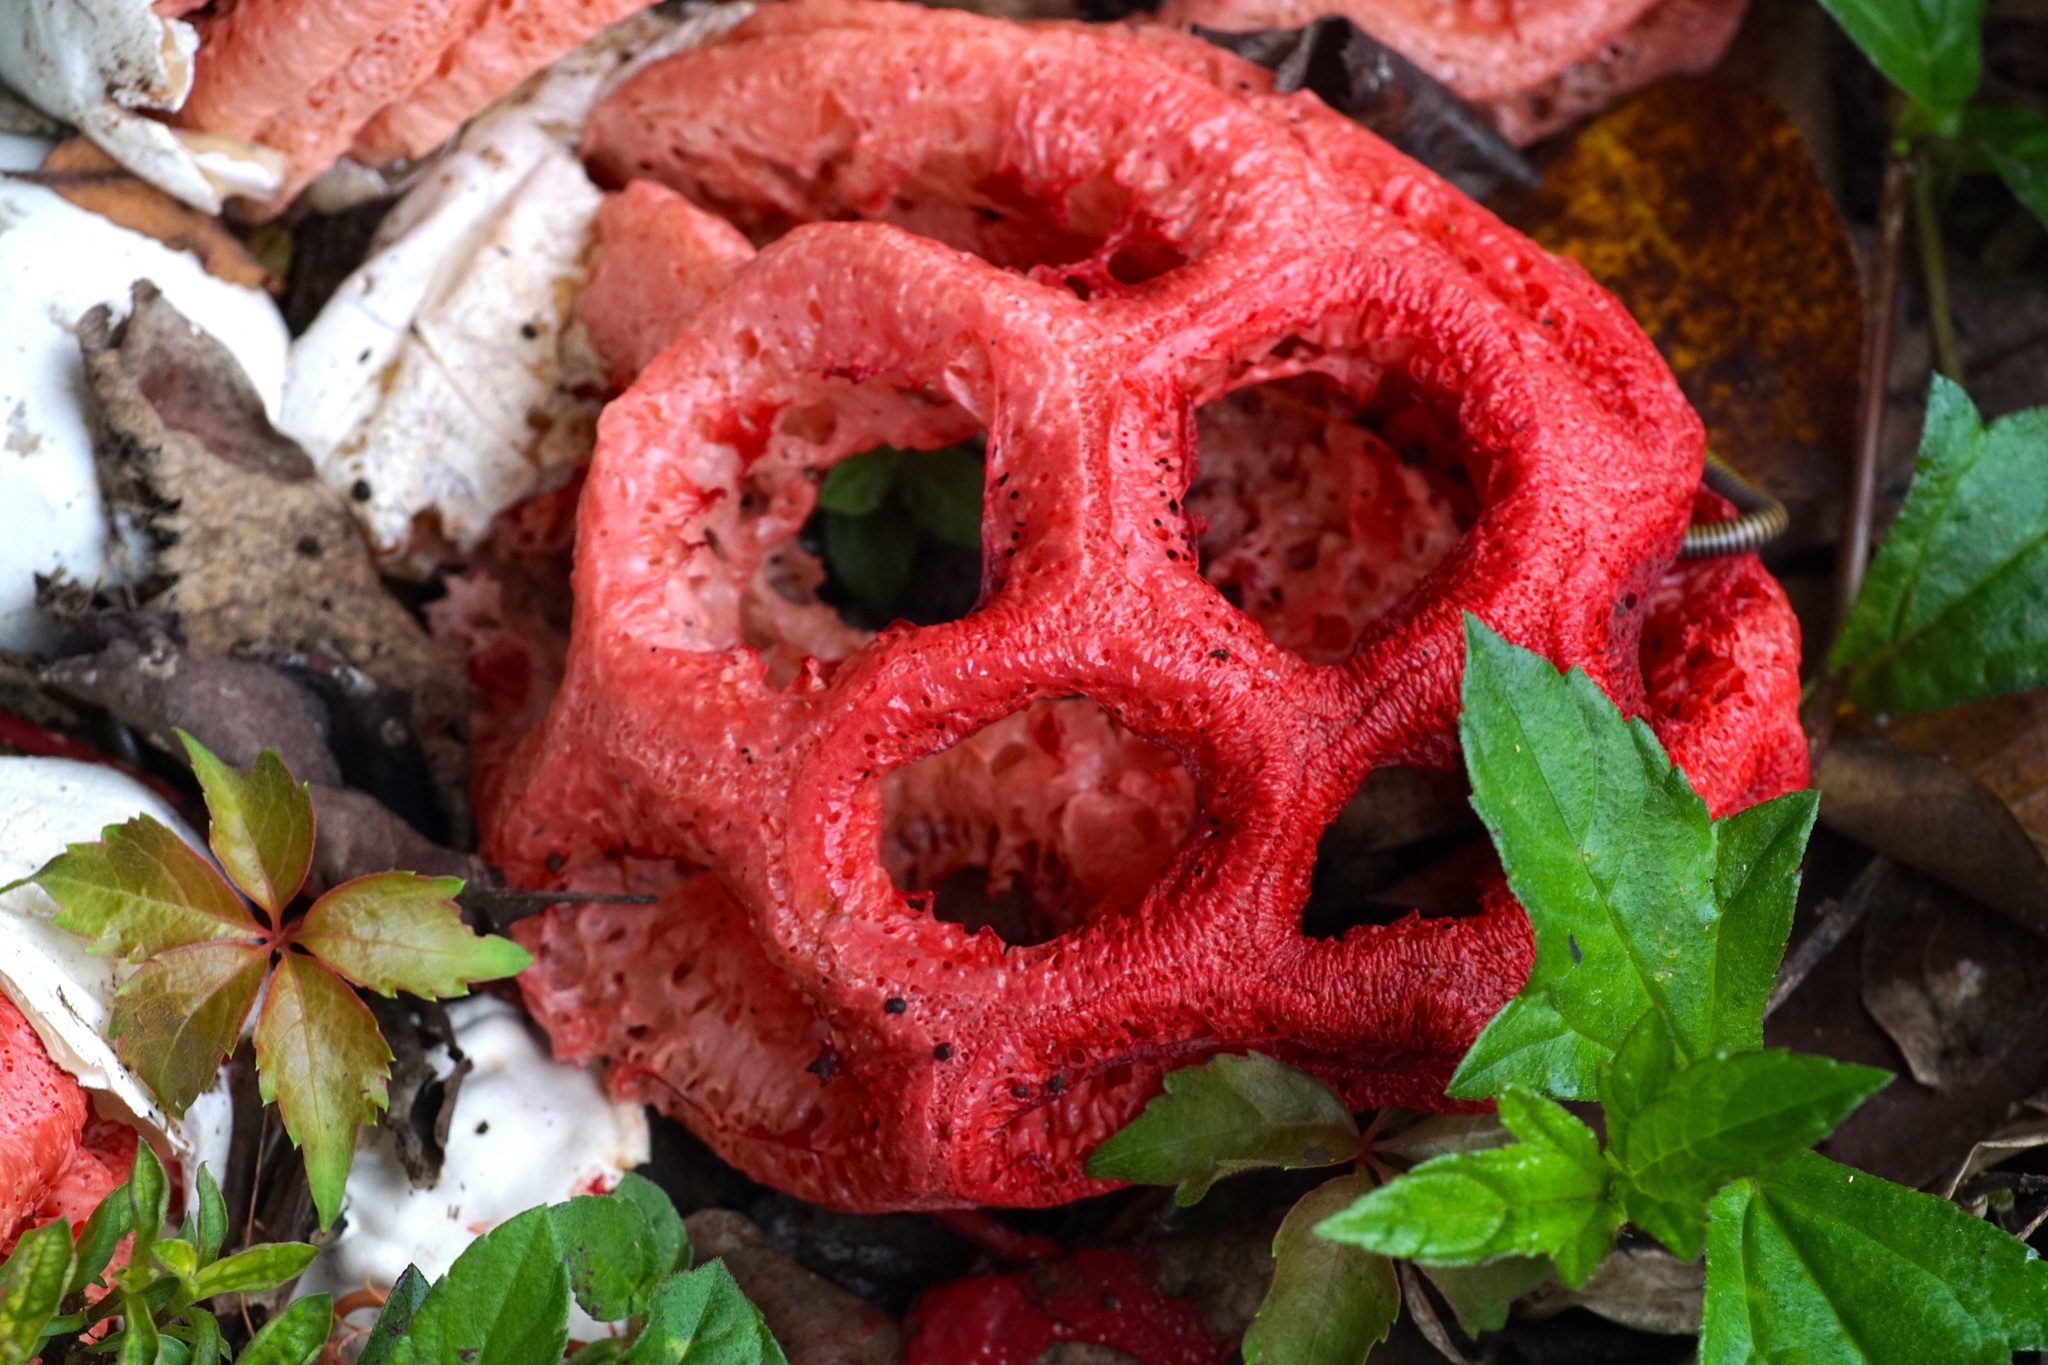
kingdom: Fungi
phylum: Basidiomycota
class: Agaricomycetes
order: Phallales
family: Phallaceae
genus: Clathrus
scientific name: Clathrus crispatus
